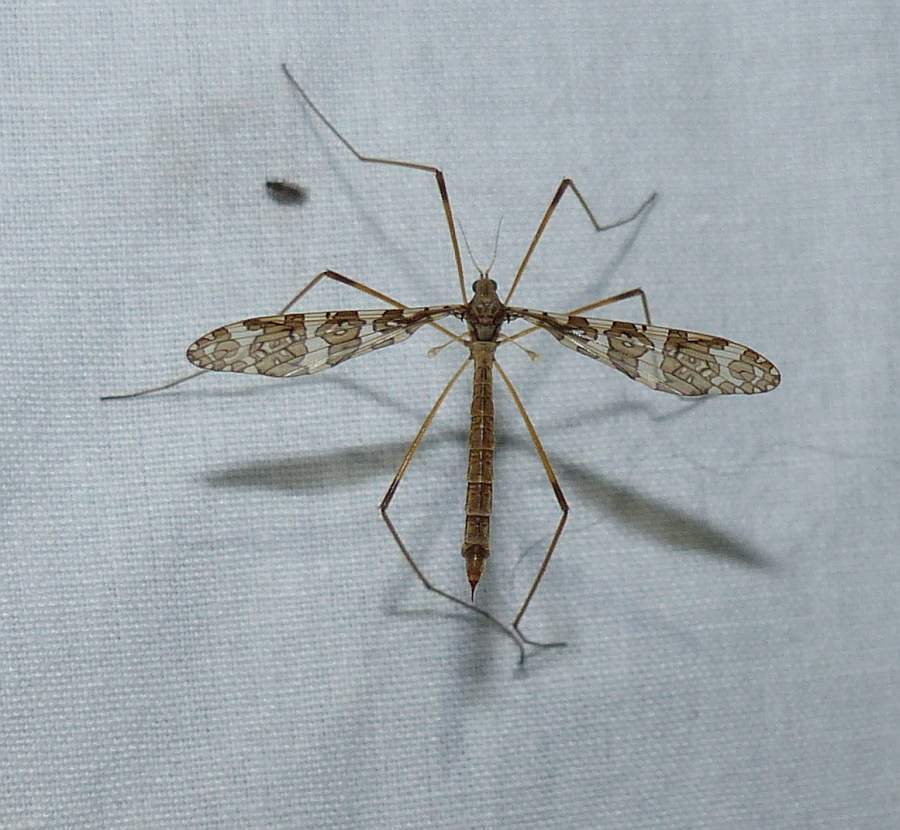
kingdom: Animalia
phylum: Arthropoda
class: Insecta
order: Diptera
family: Limoniidae
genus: Epiphragma
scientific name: Epiphragma fasciapenne
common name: Band-winged crane fly
